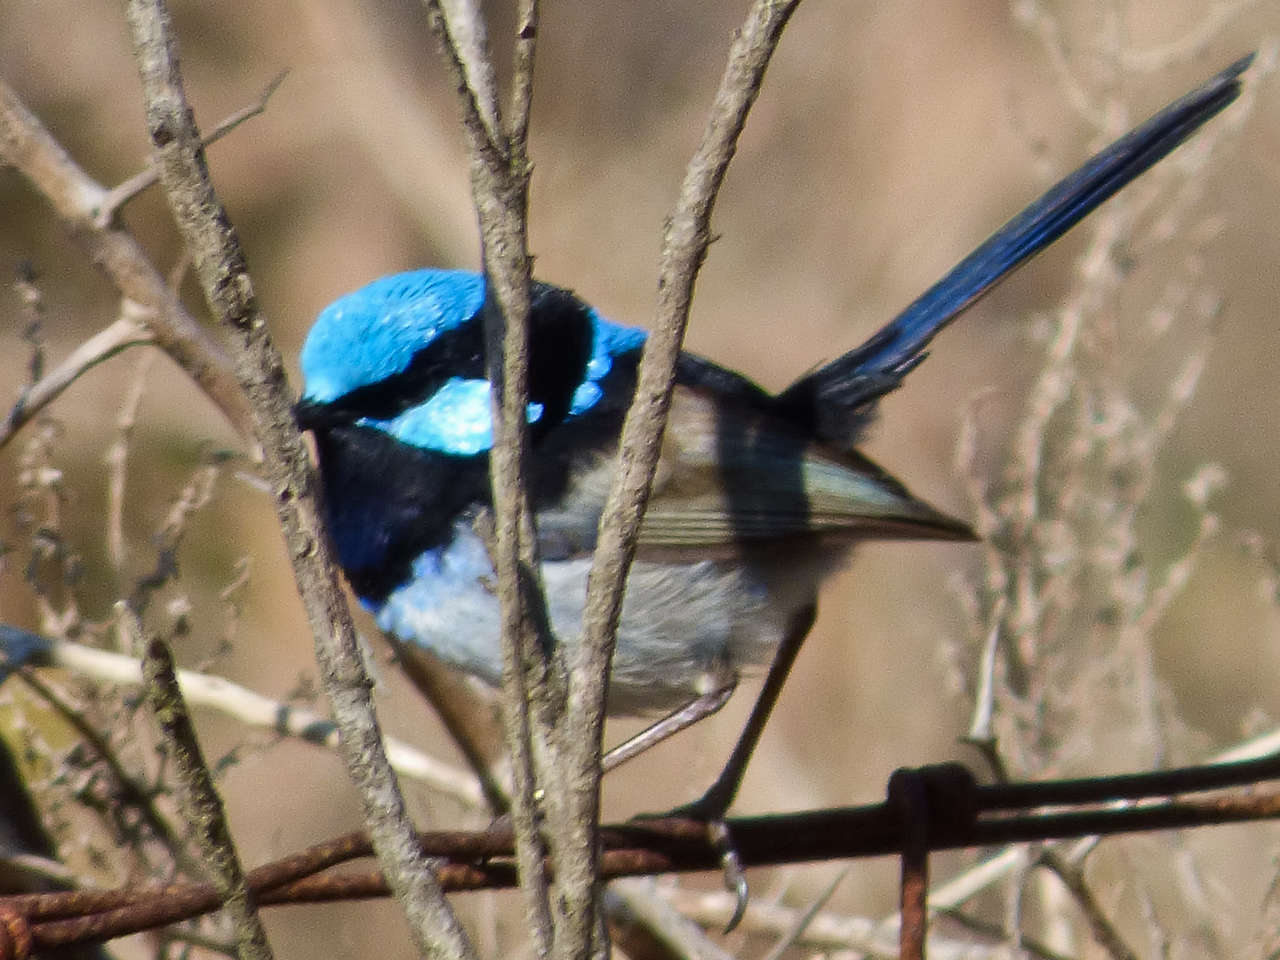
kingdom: Animalia
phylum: Chordata
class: Aves
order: Passeriformes
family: Maluridae
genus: Malurus
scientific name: Malurus cyaneus
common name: Superb fairywren
